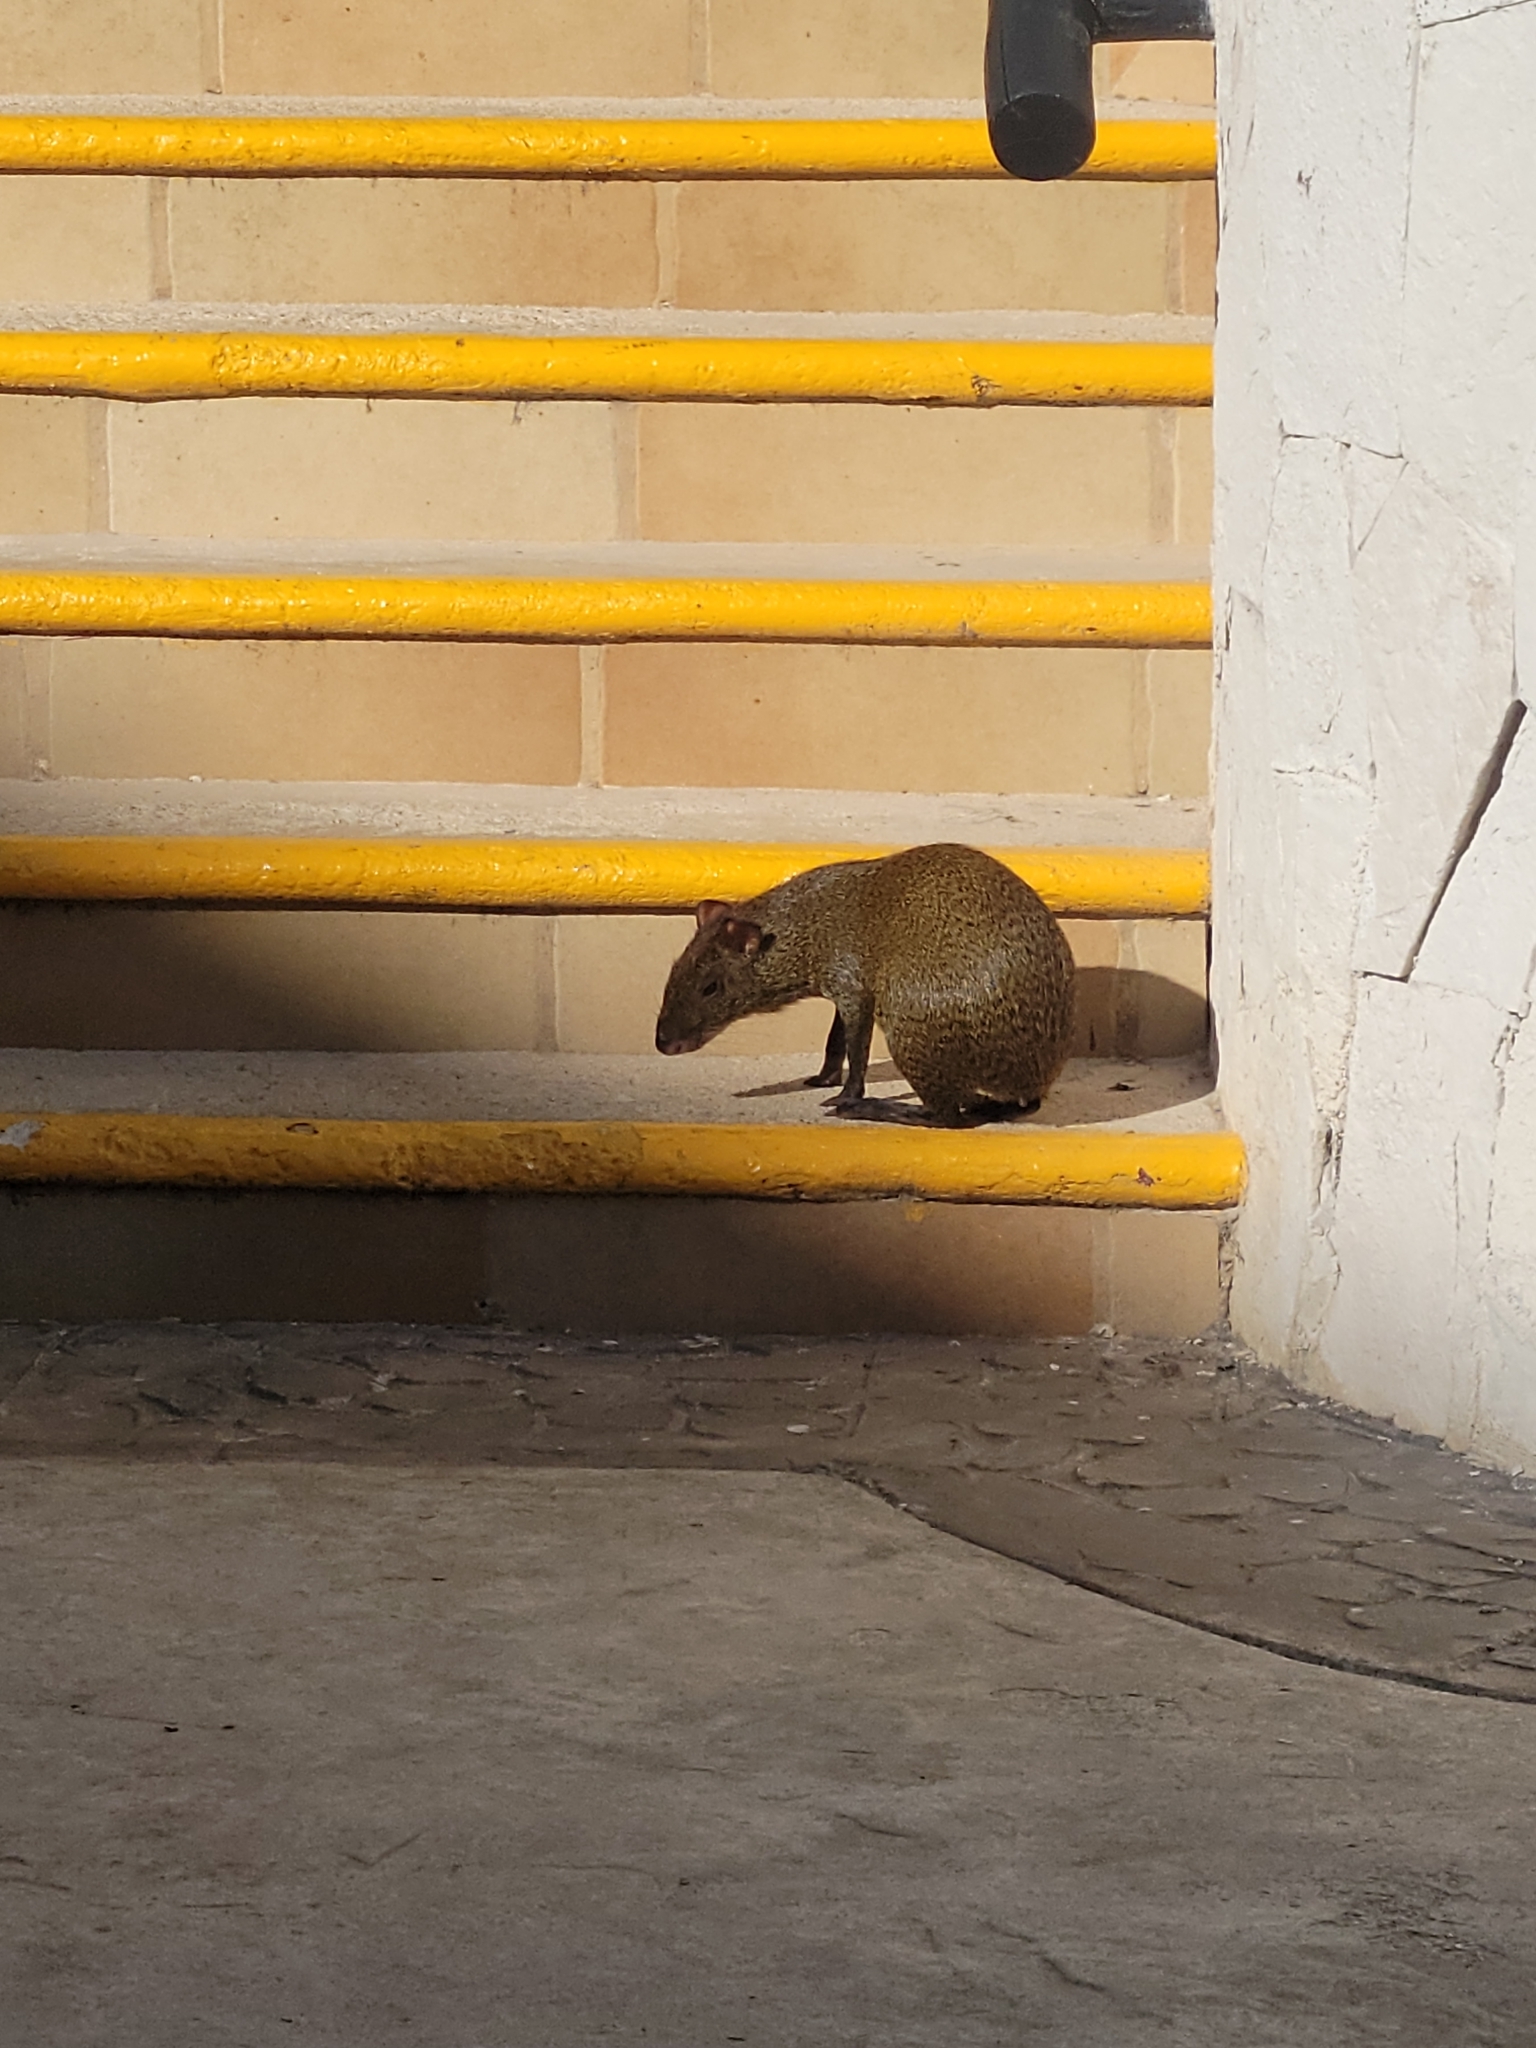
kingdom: Animalia
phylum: Chordata
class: Mammalia
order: Rodentia
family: Dasyproctidae
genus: Dasyprocta
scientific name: Dasyprocta punctata
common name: Central american agouti
